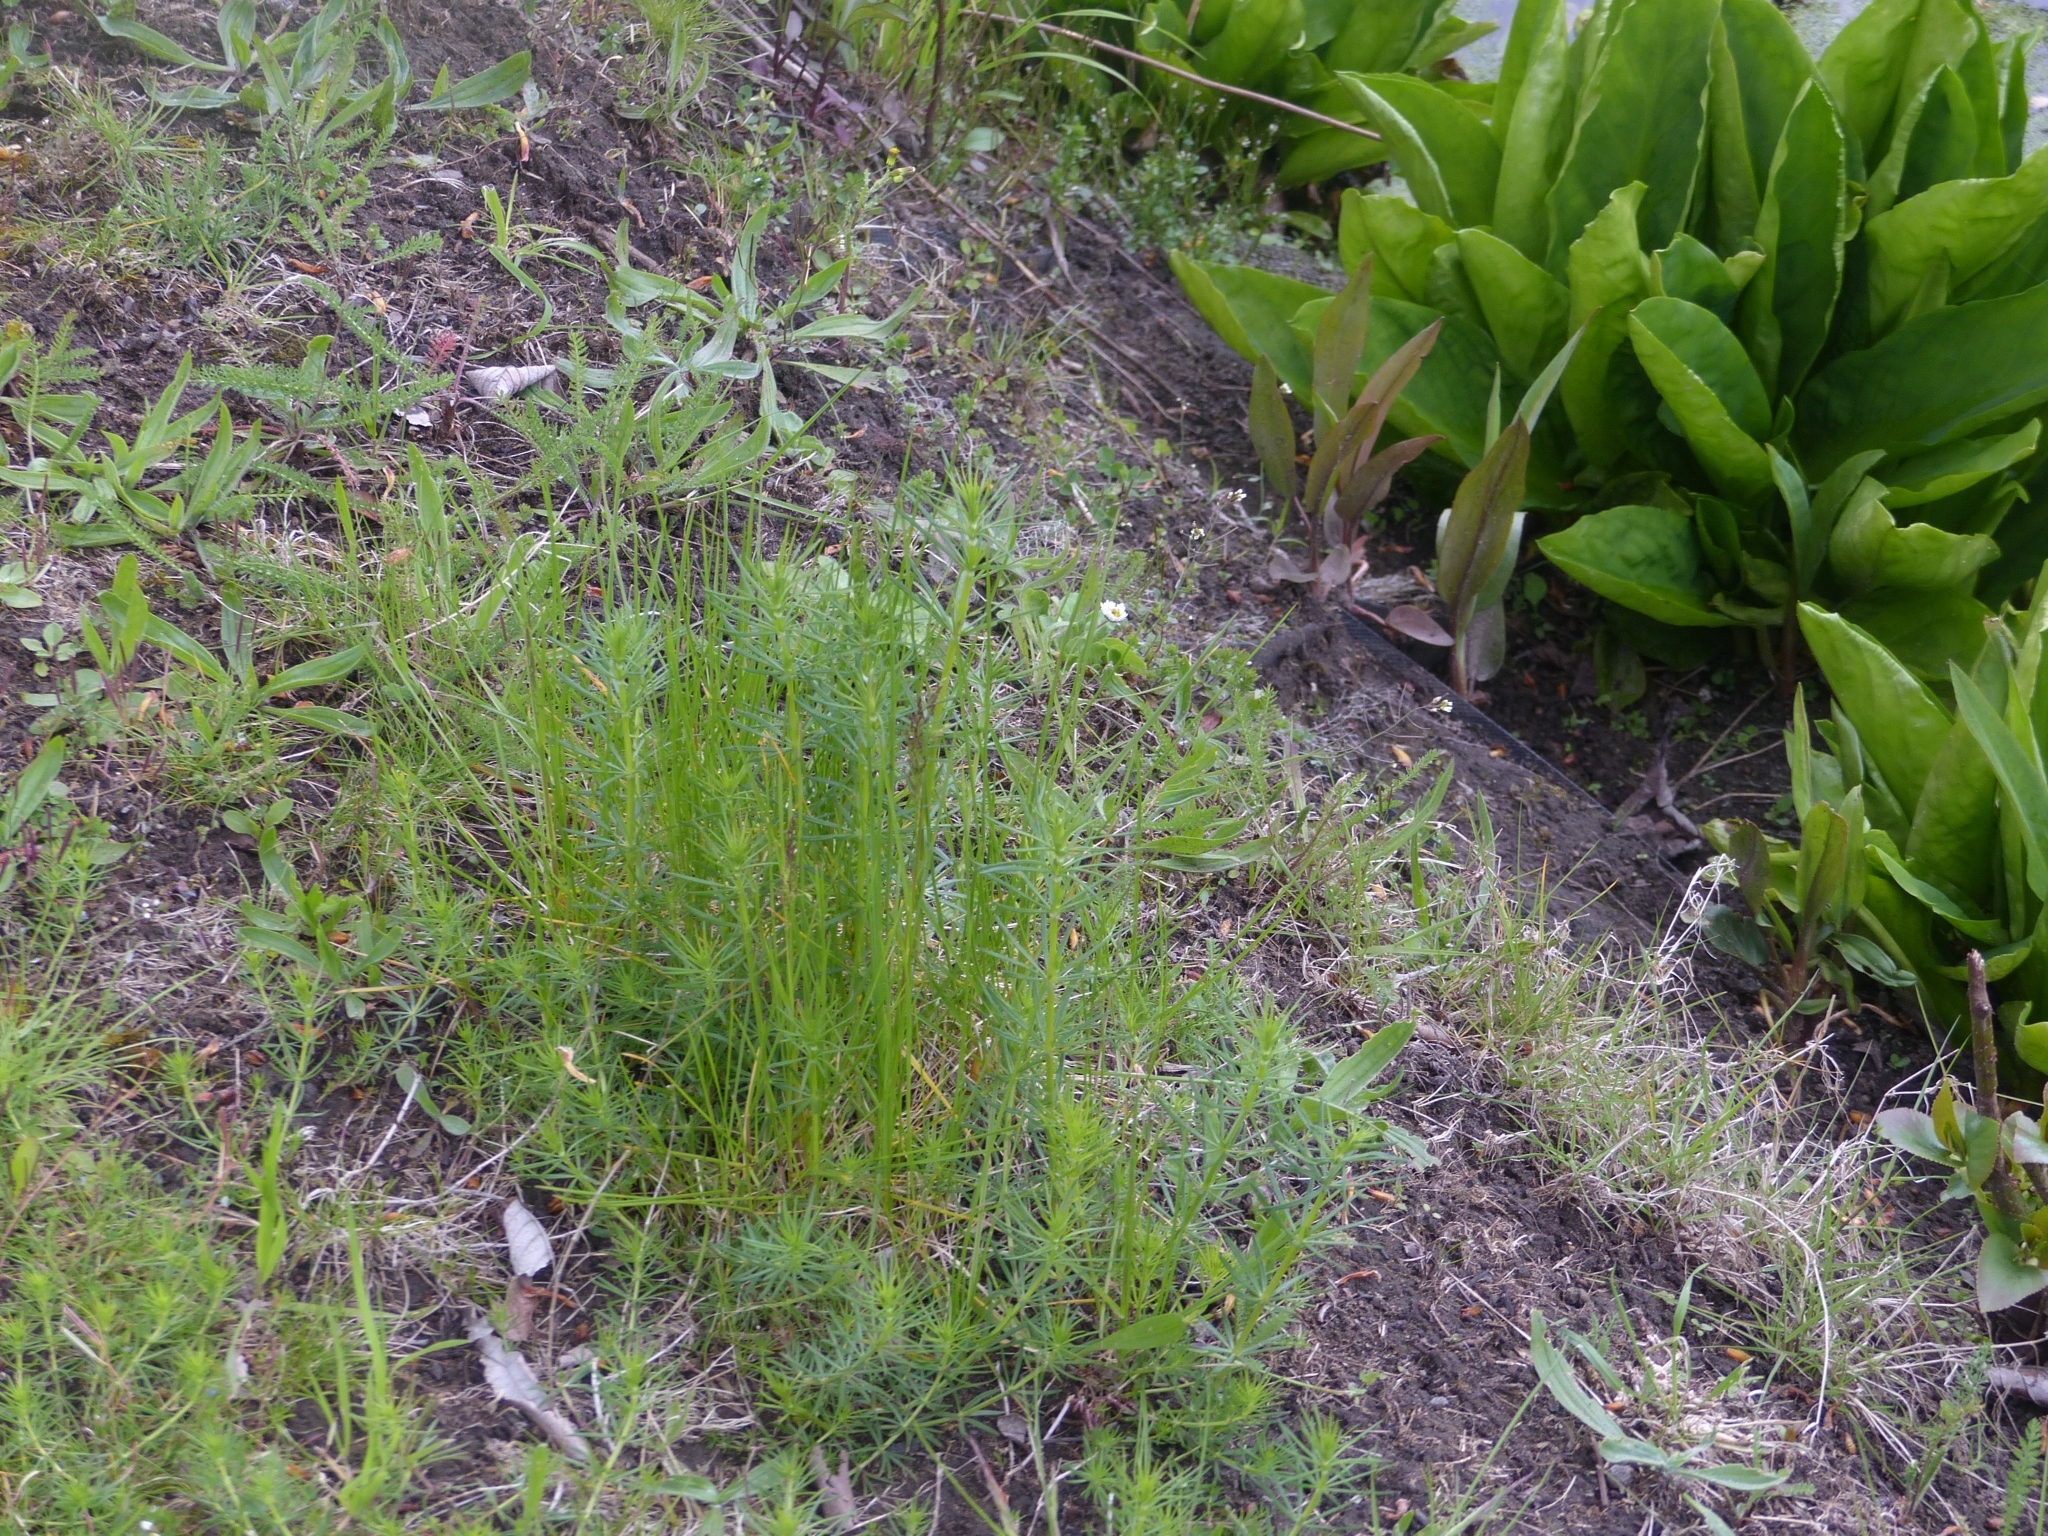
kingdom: Plantae
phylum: Tracheophyta
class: Magnoliopsida
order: Gentianales
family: Rubiaceae
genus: Galium
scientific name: Galium verum
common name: Lady's bedstraw
